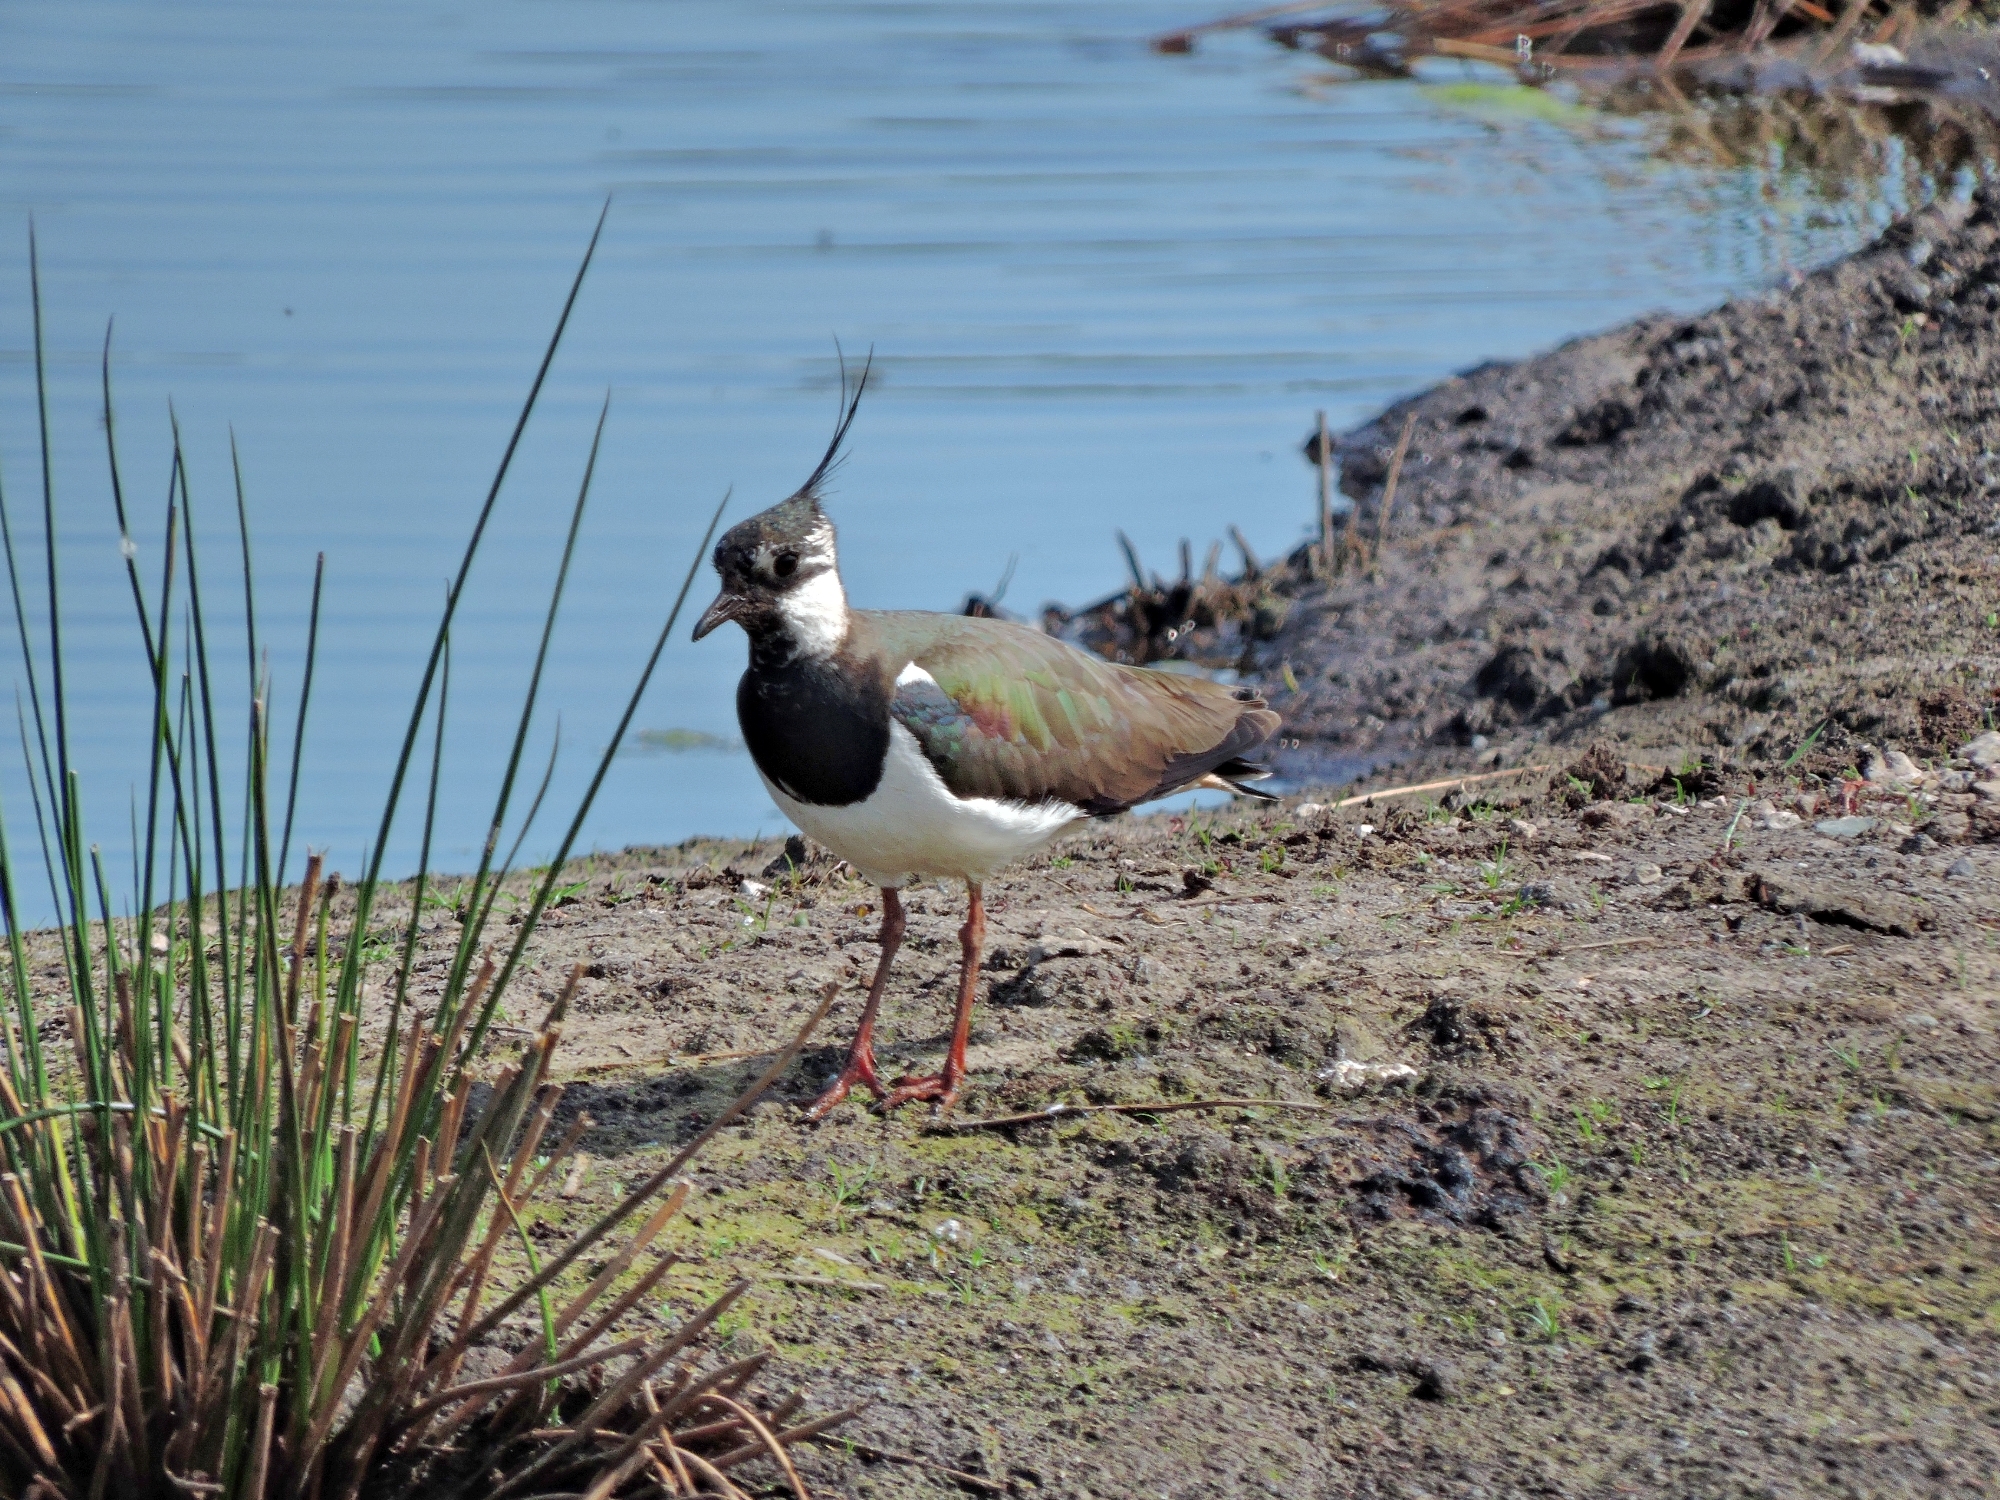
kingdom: Animalia
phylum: Chordata
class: Aves
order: Charadriiformes
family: Charadriidae
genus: Vanellus
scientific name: Vanellus vanellus
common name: Northern lapwing
